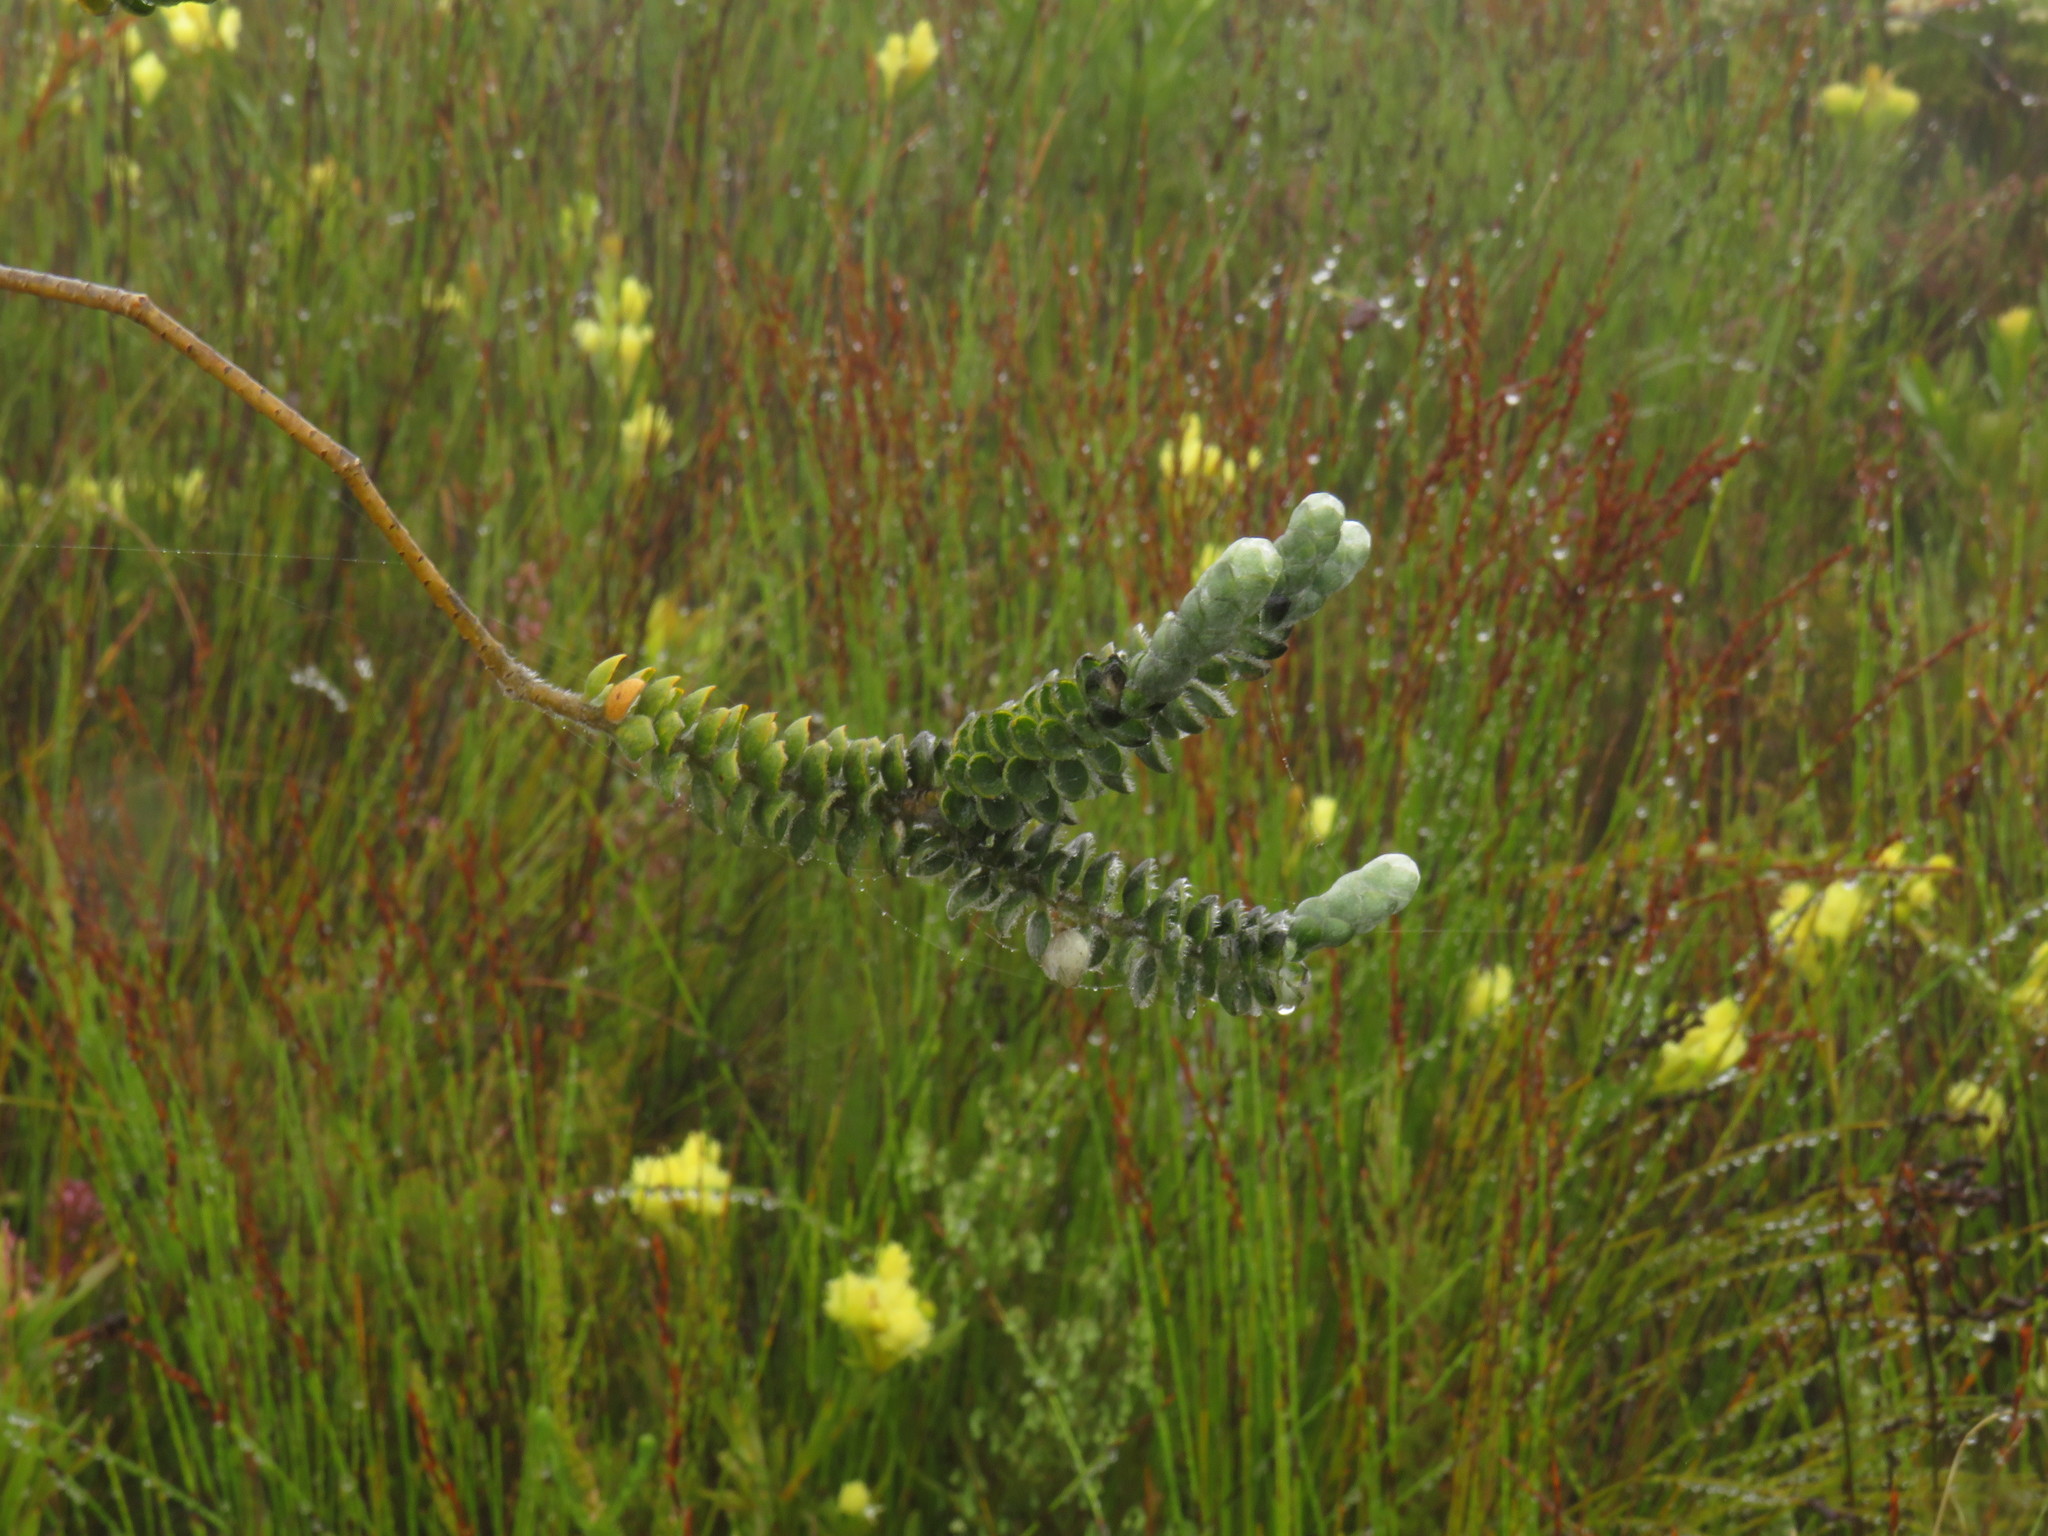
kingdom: Plantae
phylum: Tracheophyta
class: Magnoliopsida
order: Fabales
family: Fabaceae
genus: Liparia
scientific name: Liparia vestita
